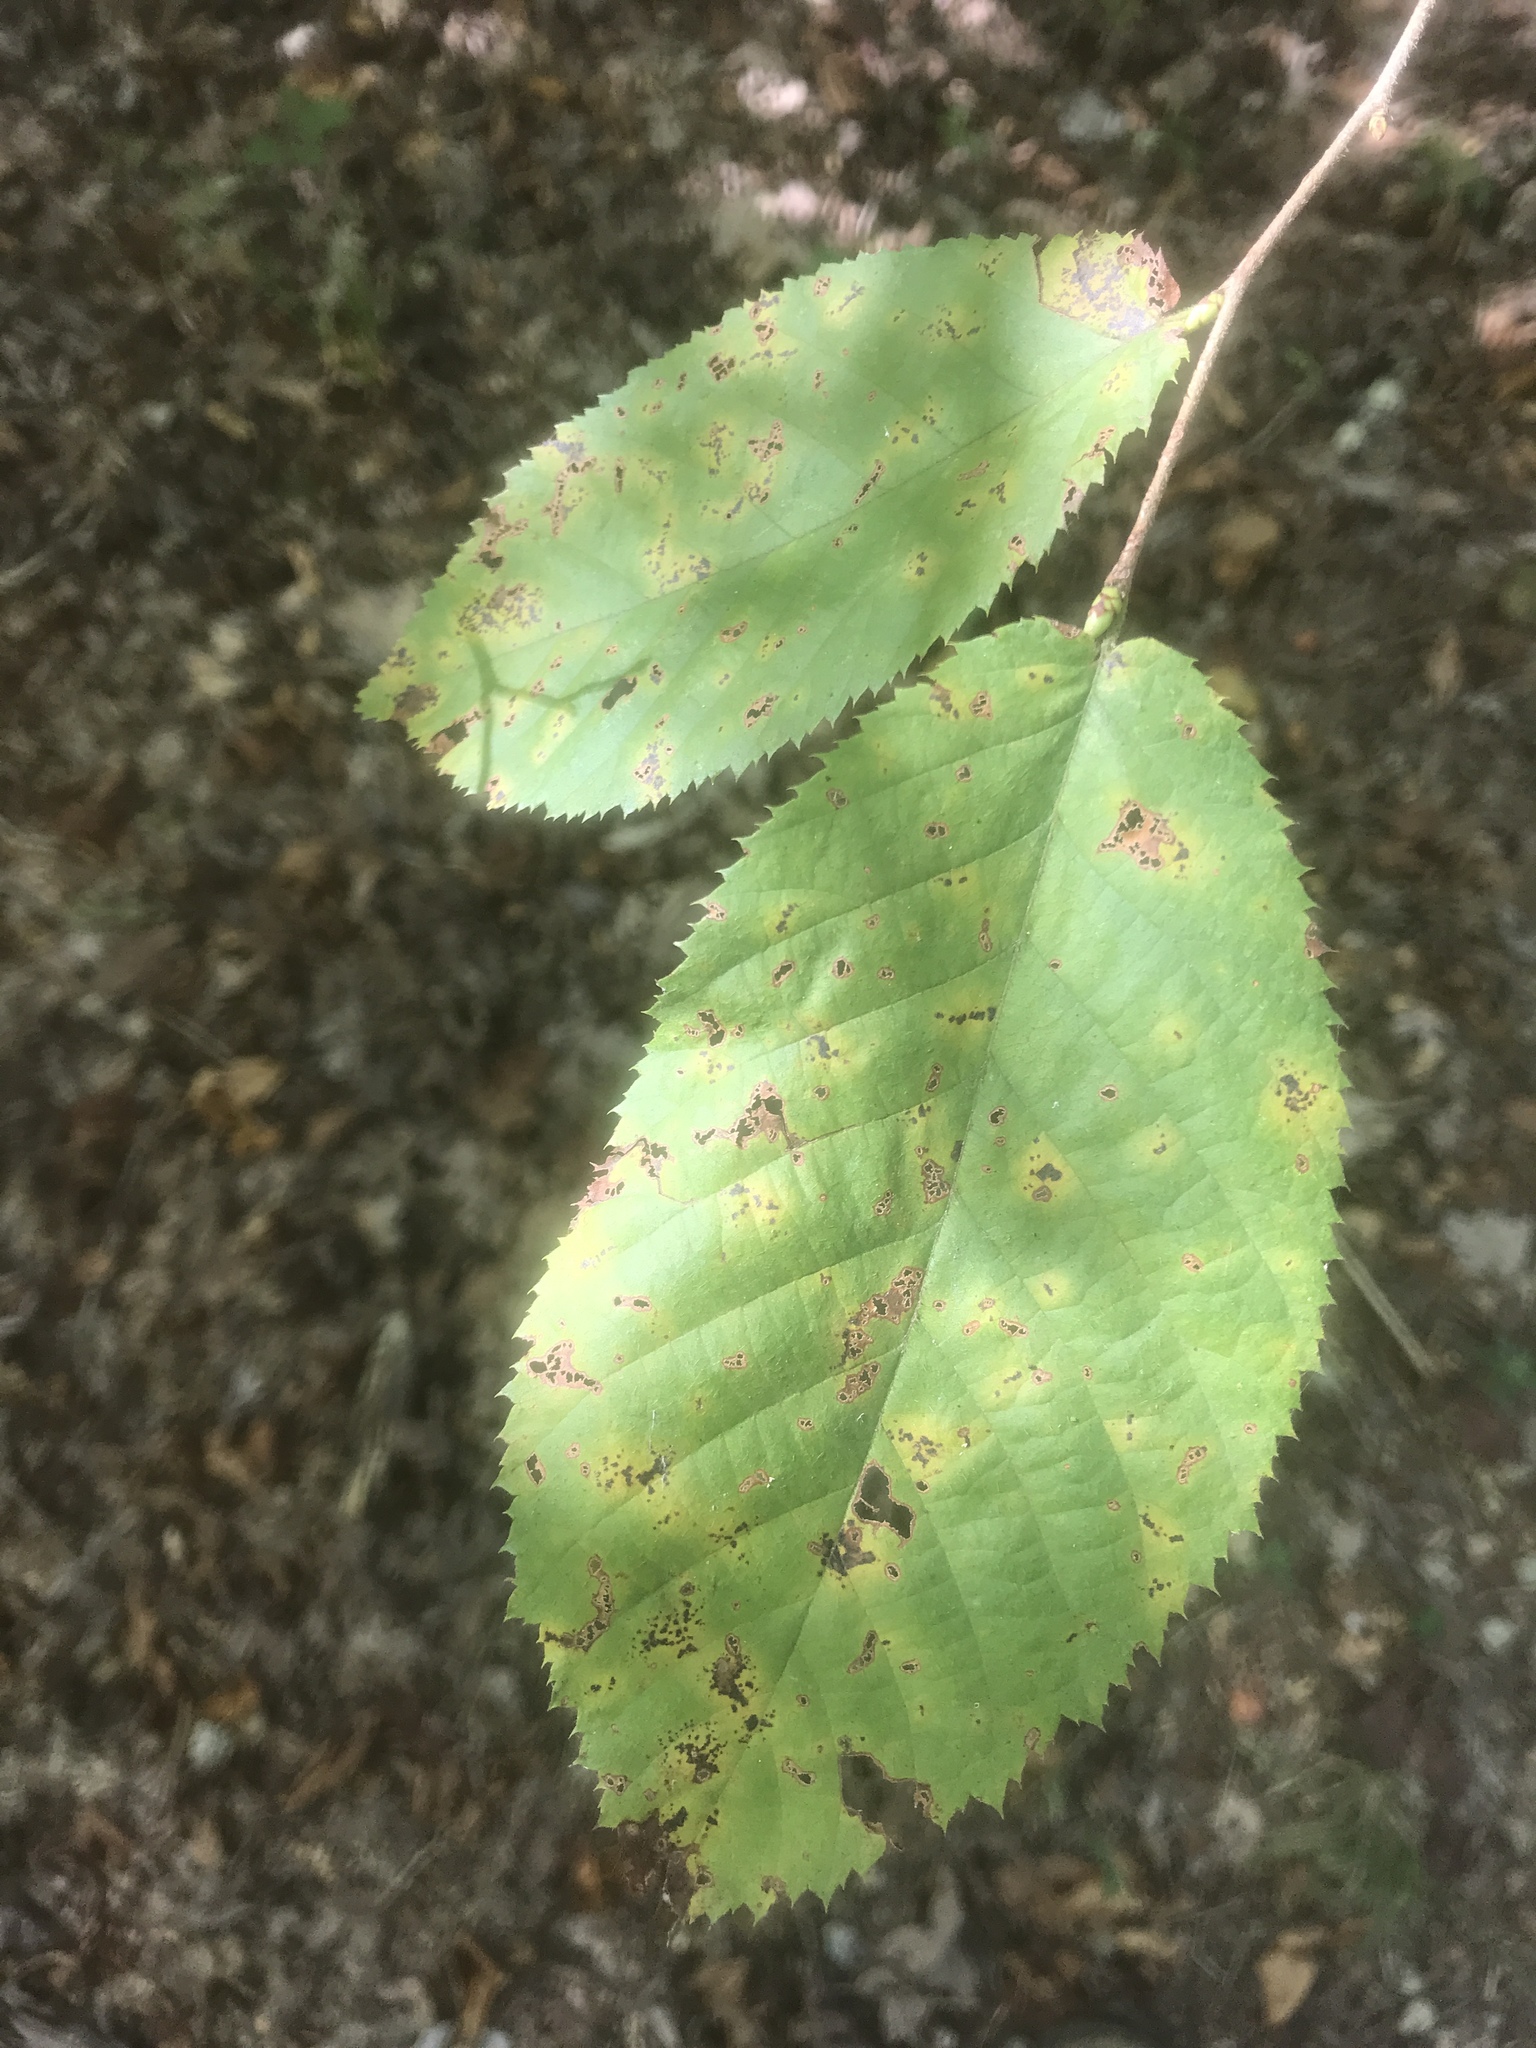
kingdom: Plantae
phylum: Tracheophyta
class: Magnoliopsida
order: Fagales
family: Betulaceae
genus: Ostrya
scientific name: Ostrya virginiana
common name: Ironwood
